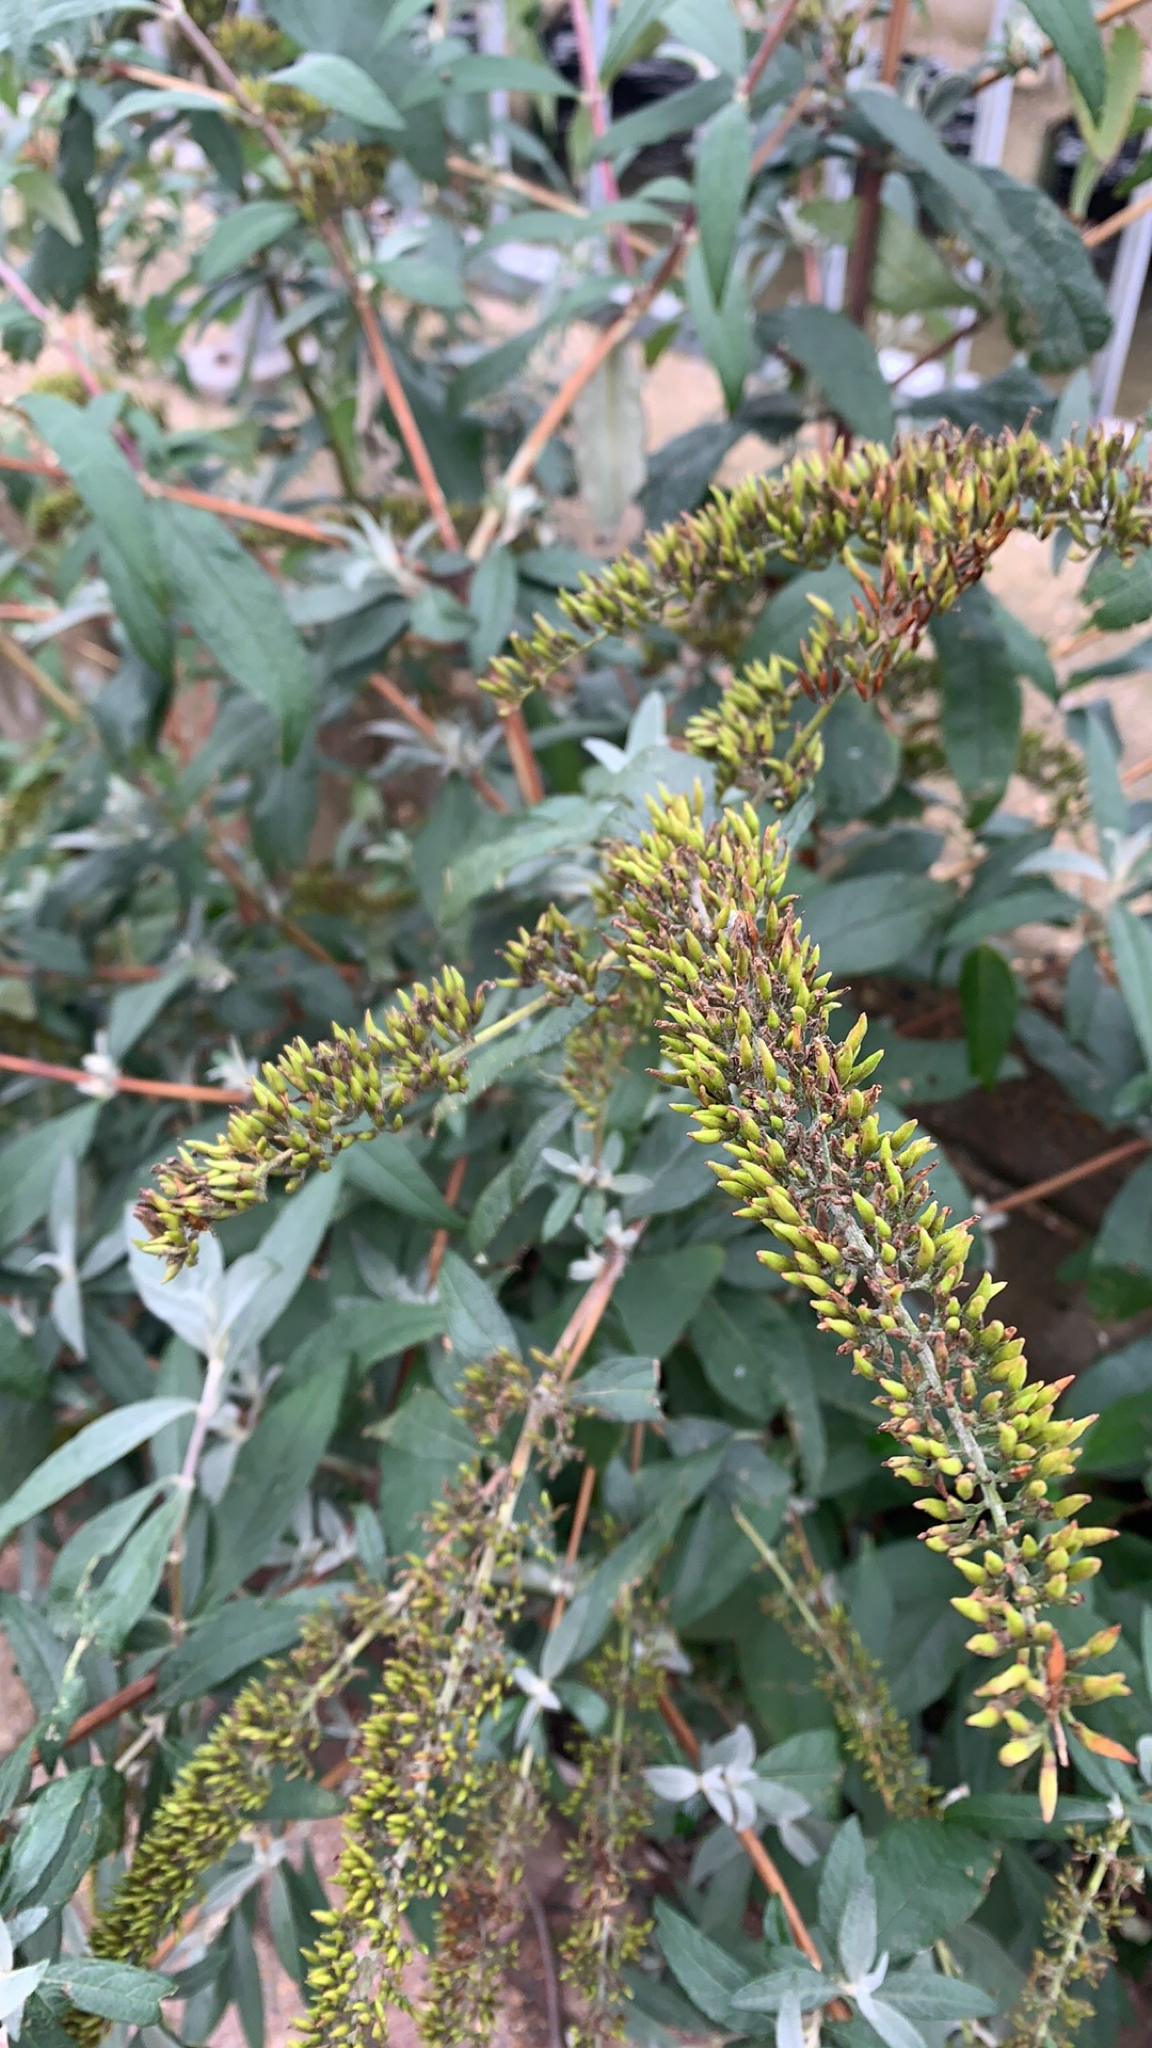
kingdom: Plantae
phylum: Tracheophyta
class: Magnoliopsida
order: Lamiales
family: Scrophulariaceae
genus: Buddleja
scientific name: Buddleja davidii
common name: Butterfly-bush
